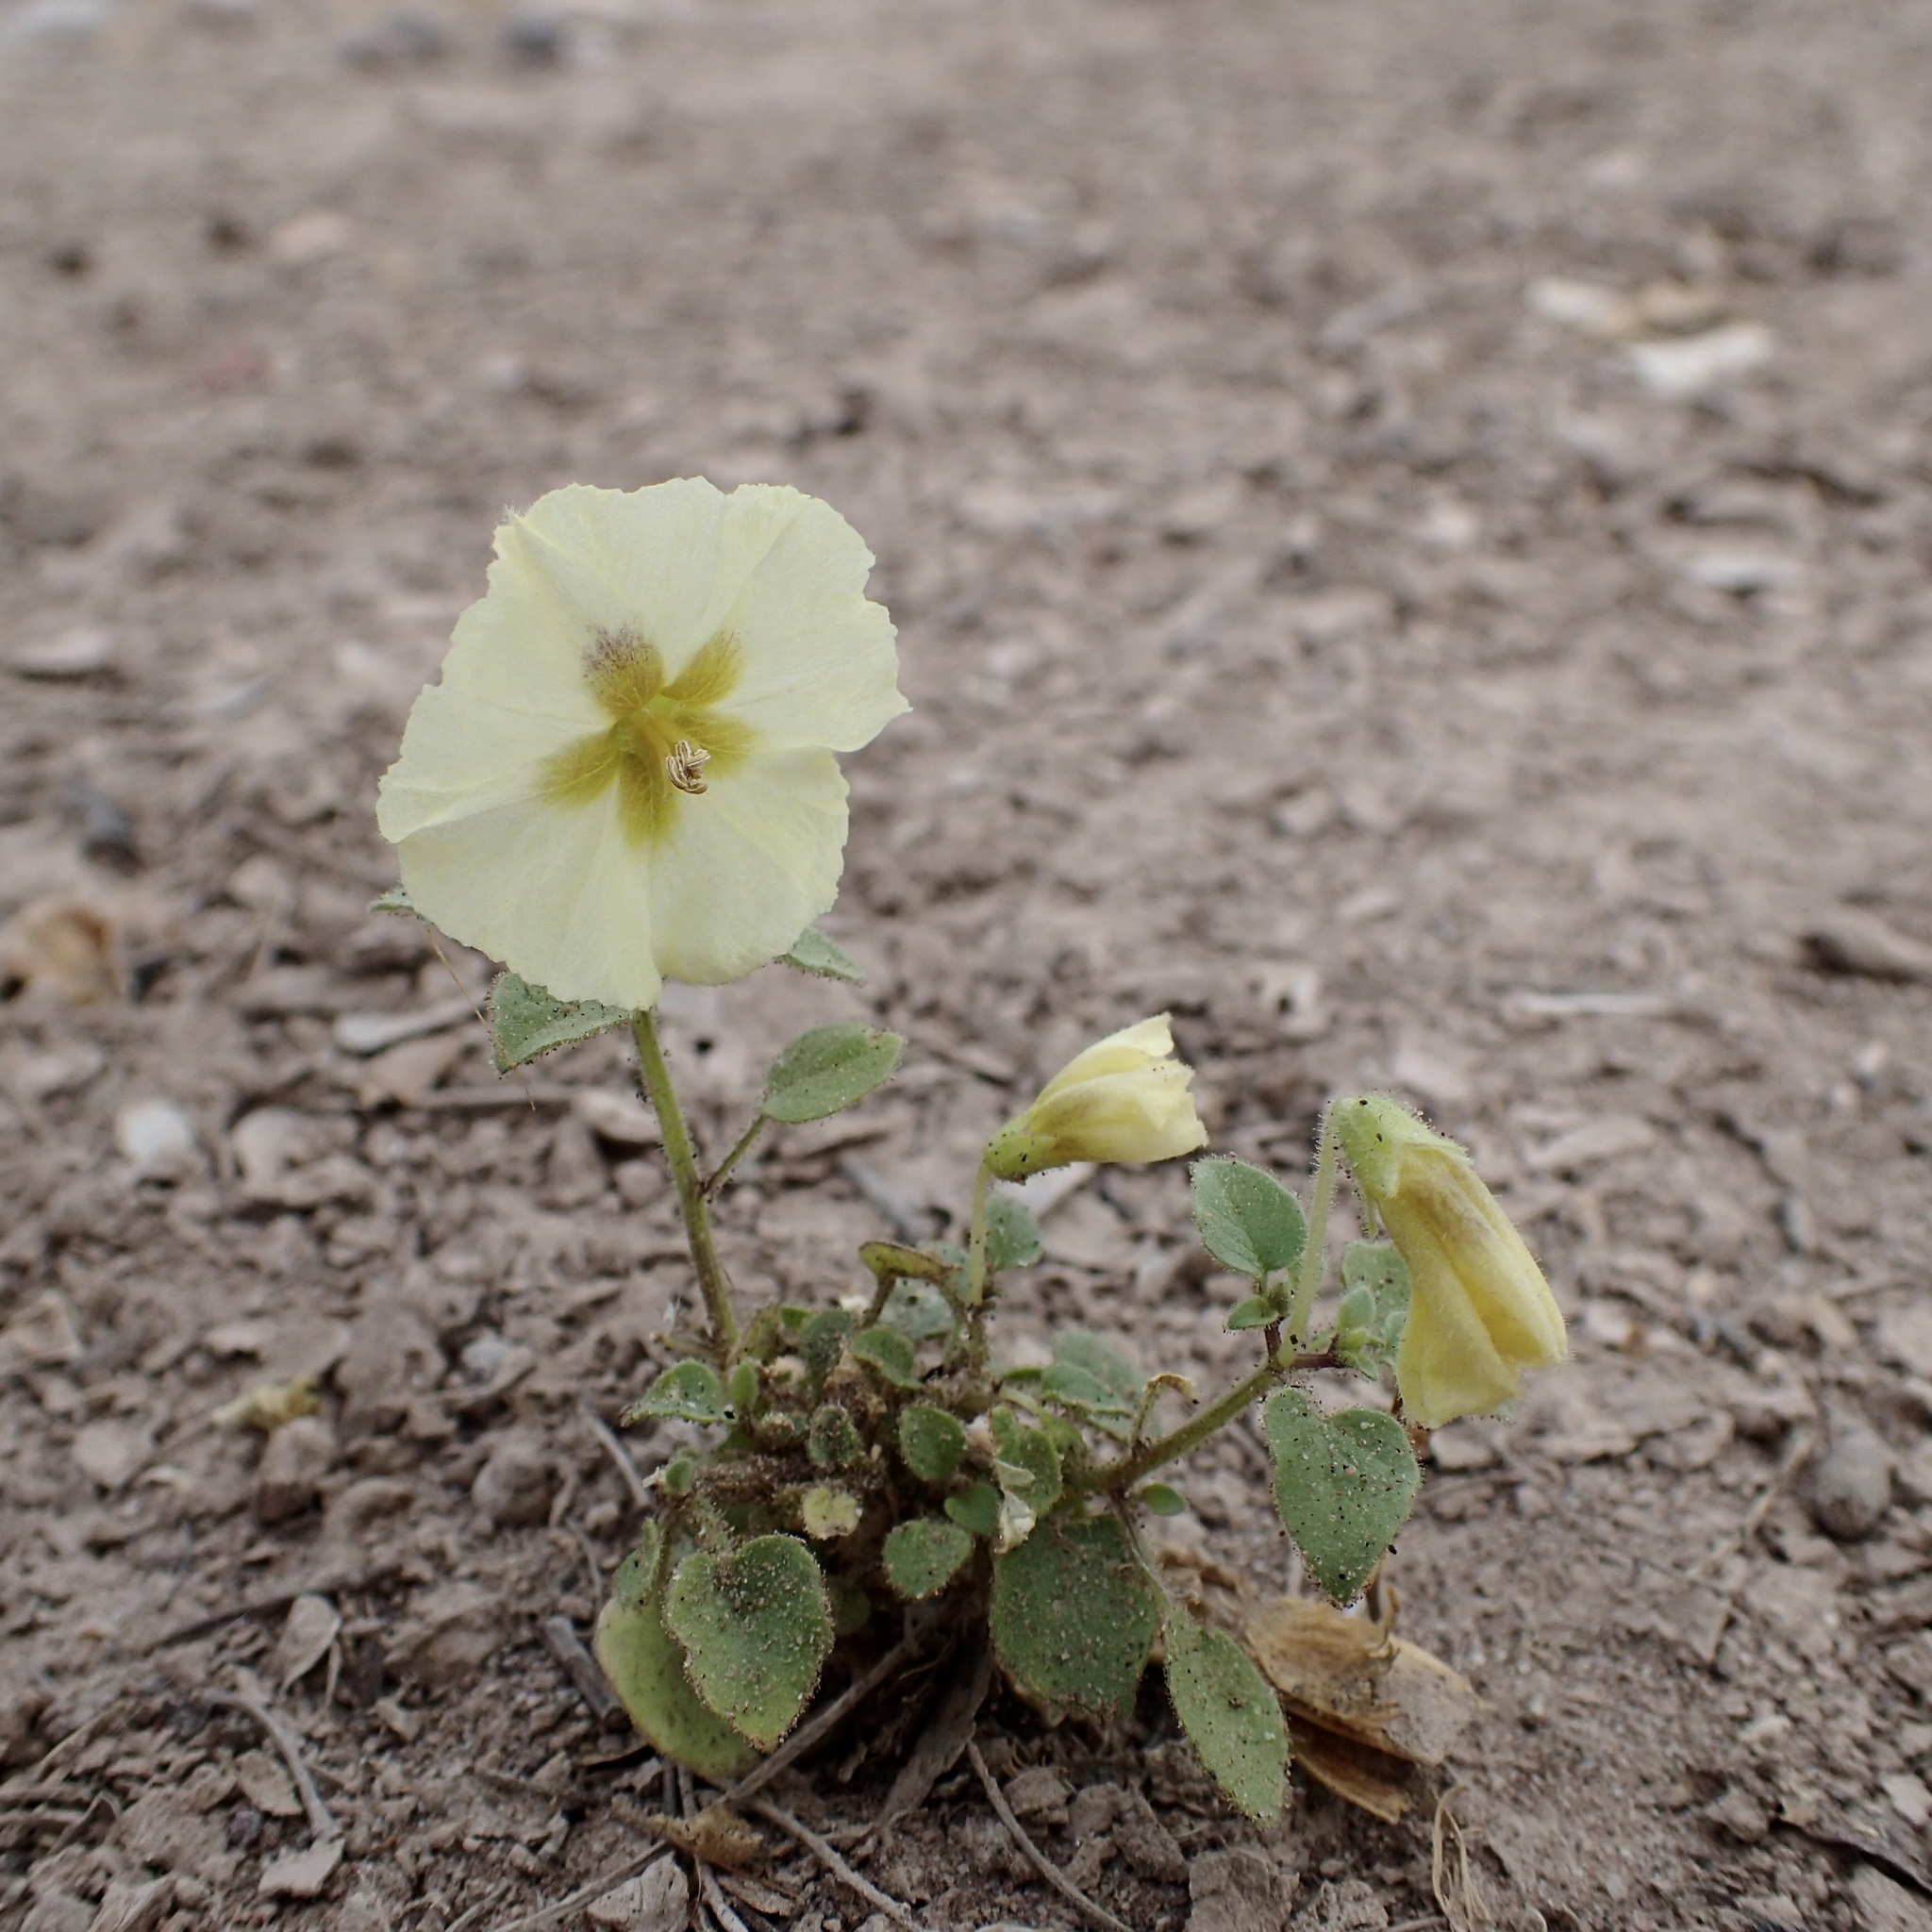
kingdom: Plantae
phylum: Tracheophyta
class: Magnoliopsida
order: Solanales
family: Solanaceae
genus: Physalis
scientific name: Physalis pubescens
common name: Downy ground-cherry
